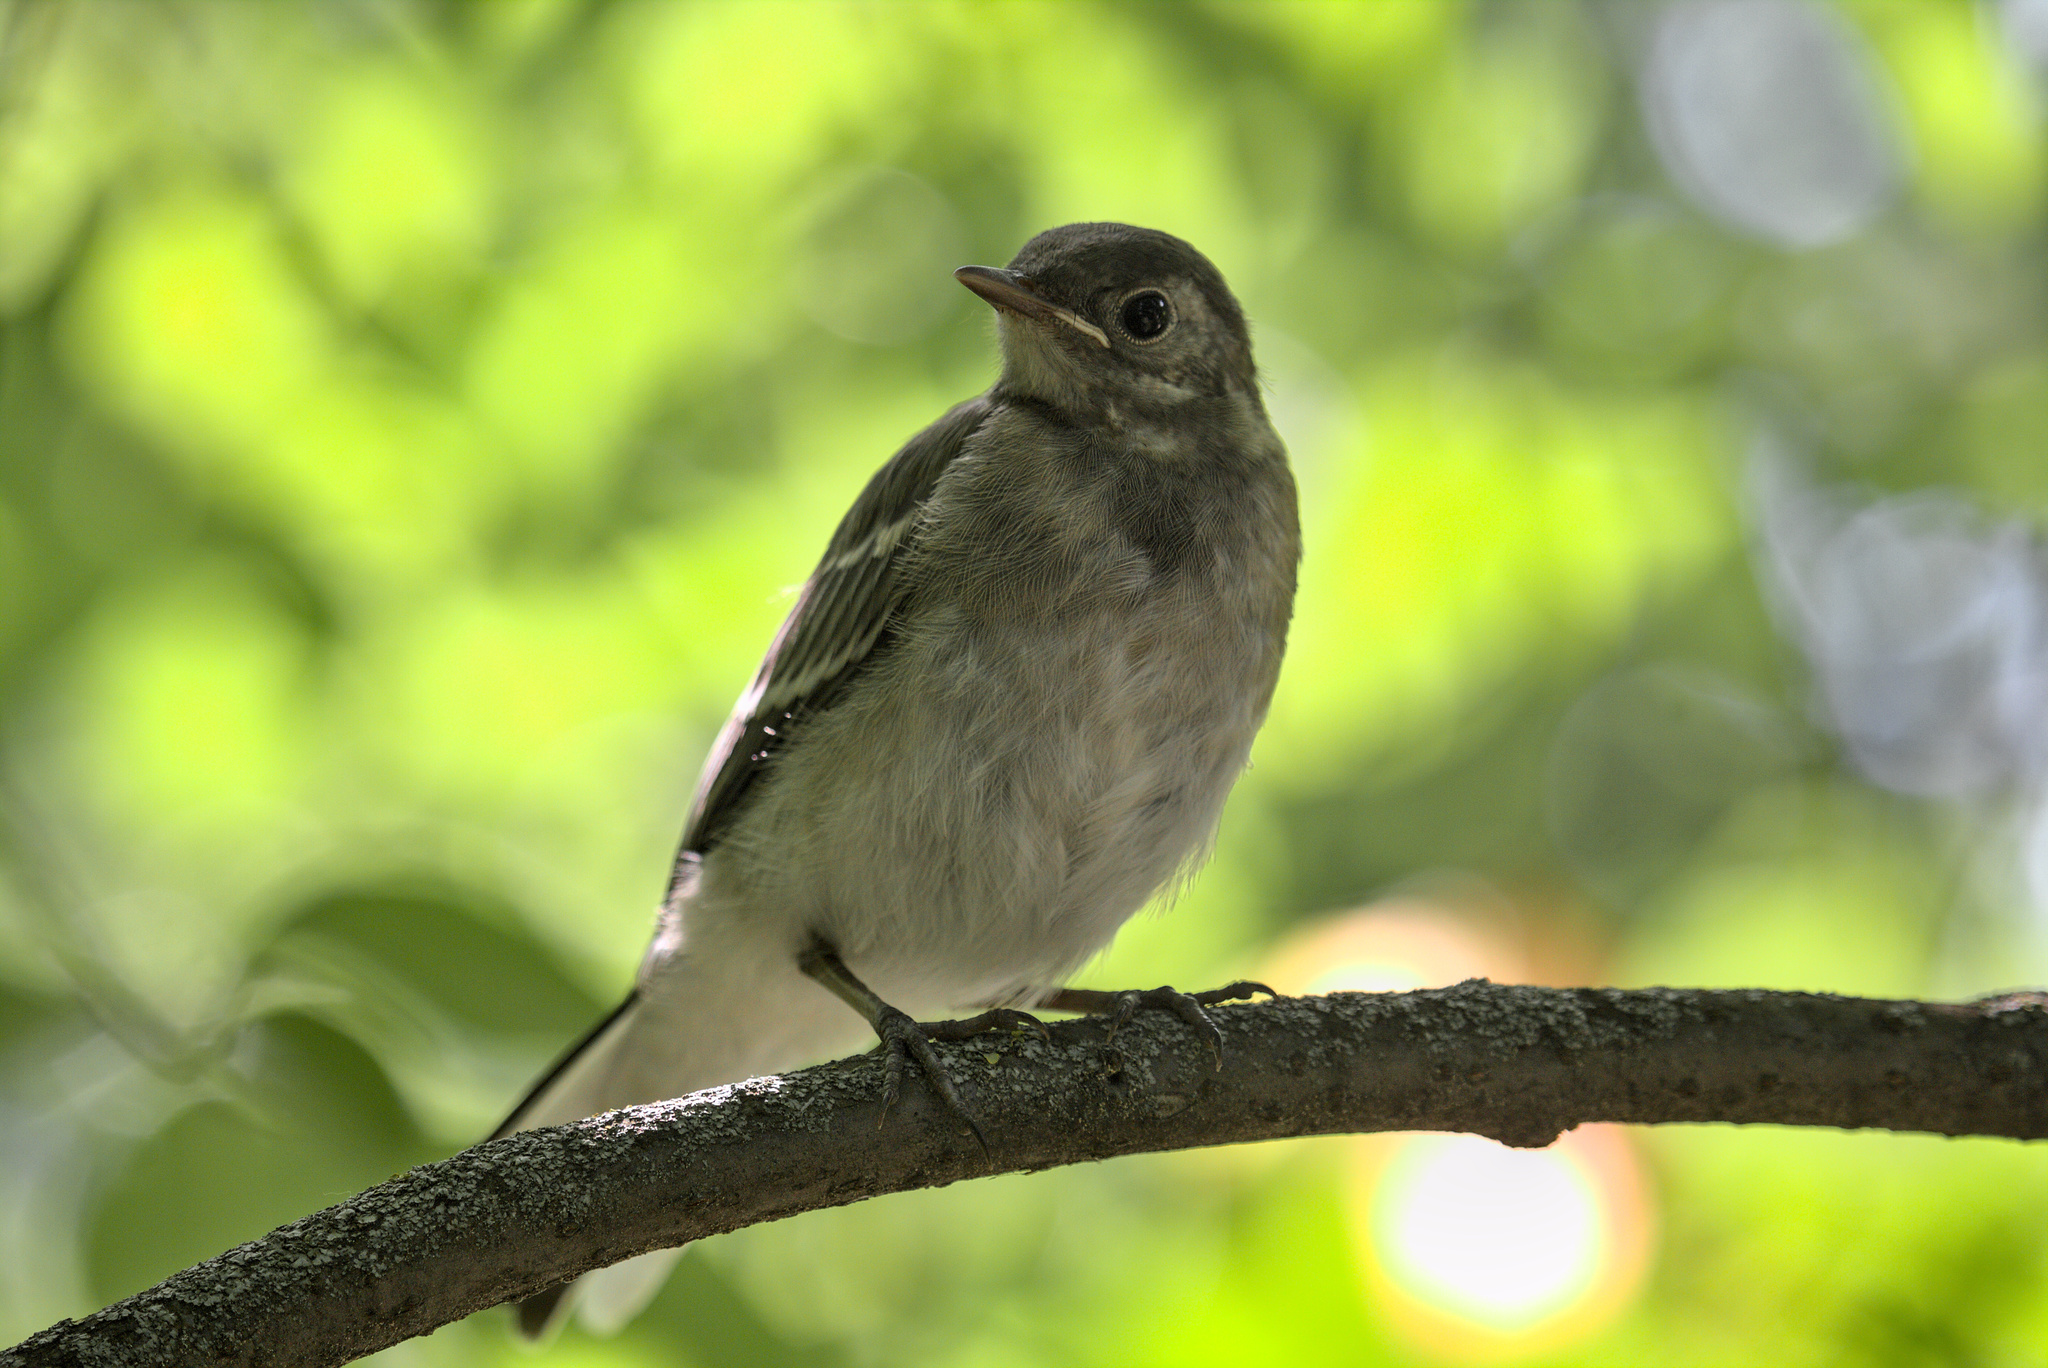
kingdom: Animalia
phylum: Chordata
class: Aves
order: Passeriformes
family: Motacillidae
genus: Motacilla
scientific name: Motacilla alba
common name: White wagtail
